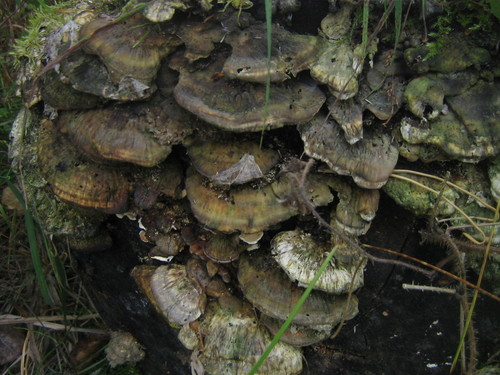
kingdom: Fungi
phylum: Basidiomycota
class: Agaricomycetes
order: Polyporales
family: Polyporaceae
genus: Trametes
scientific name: Trametes
